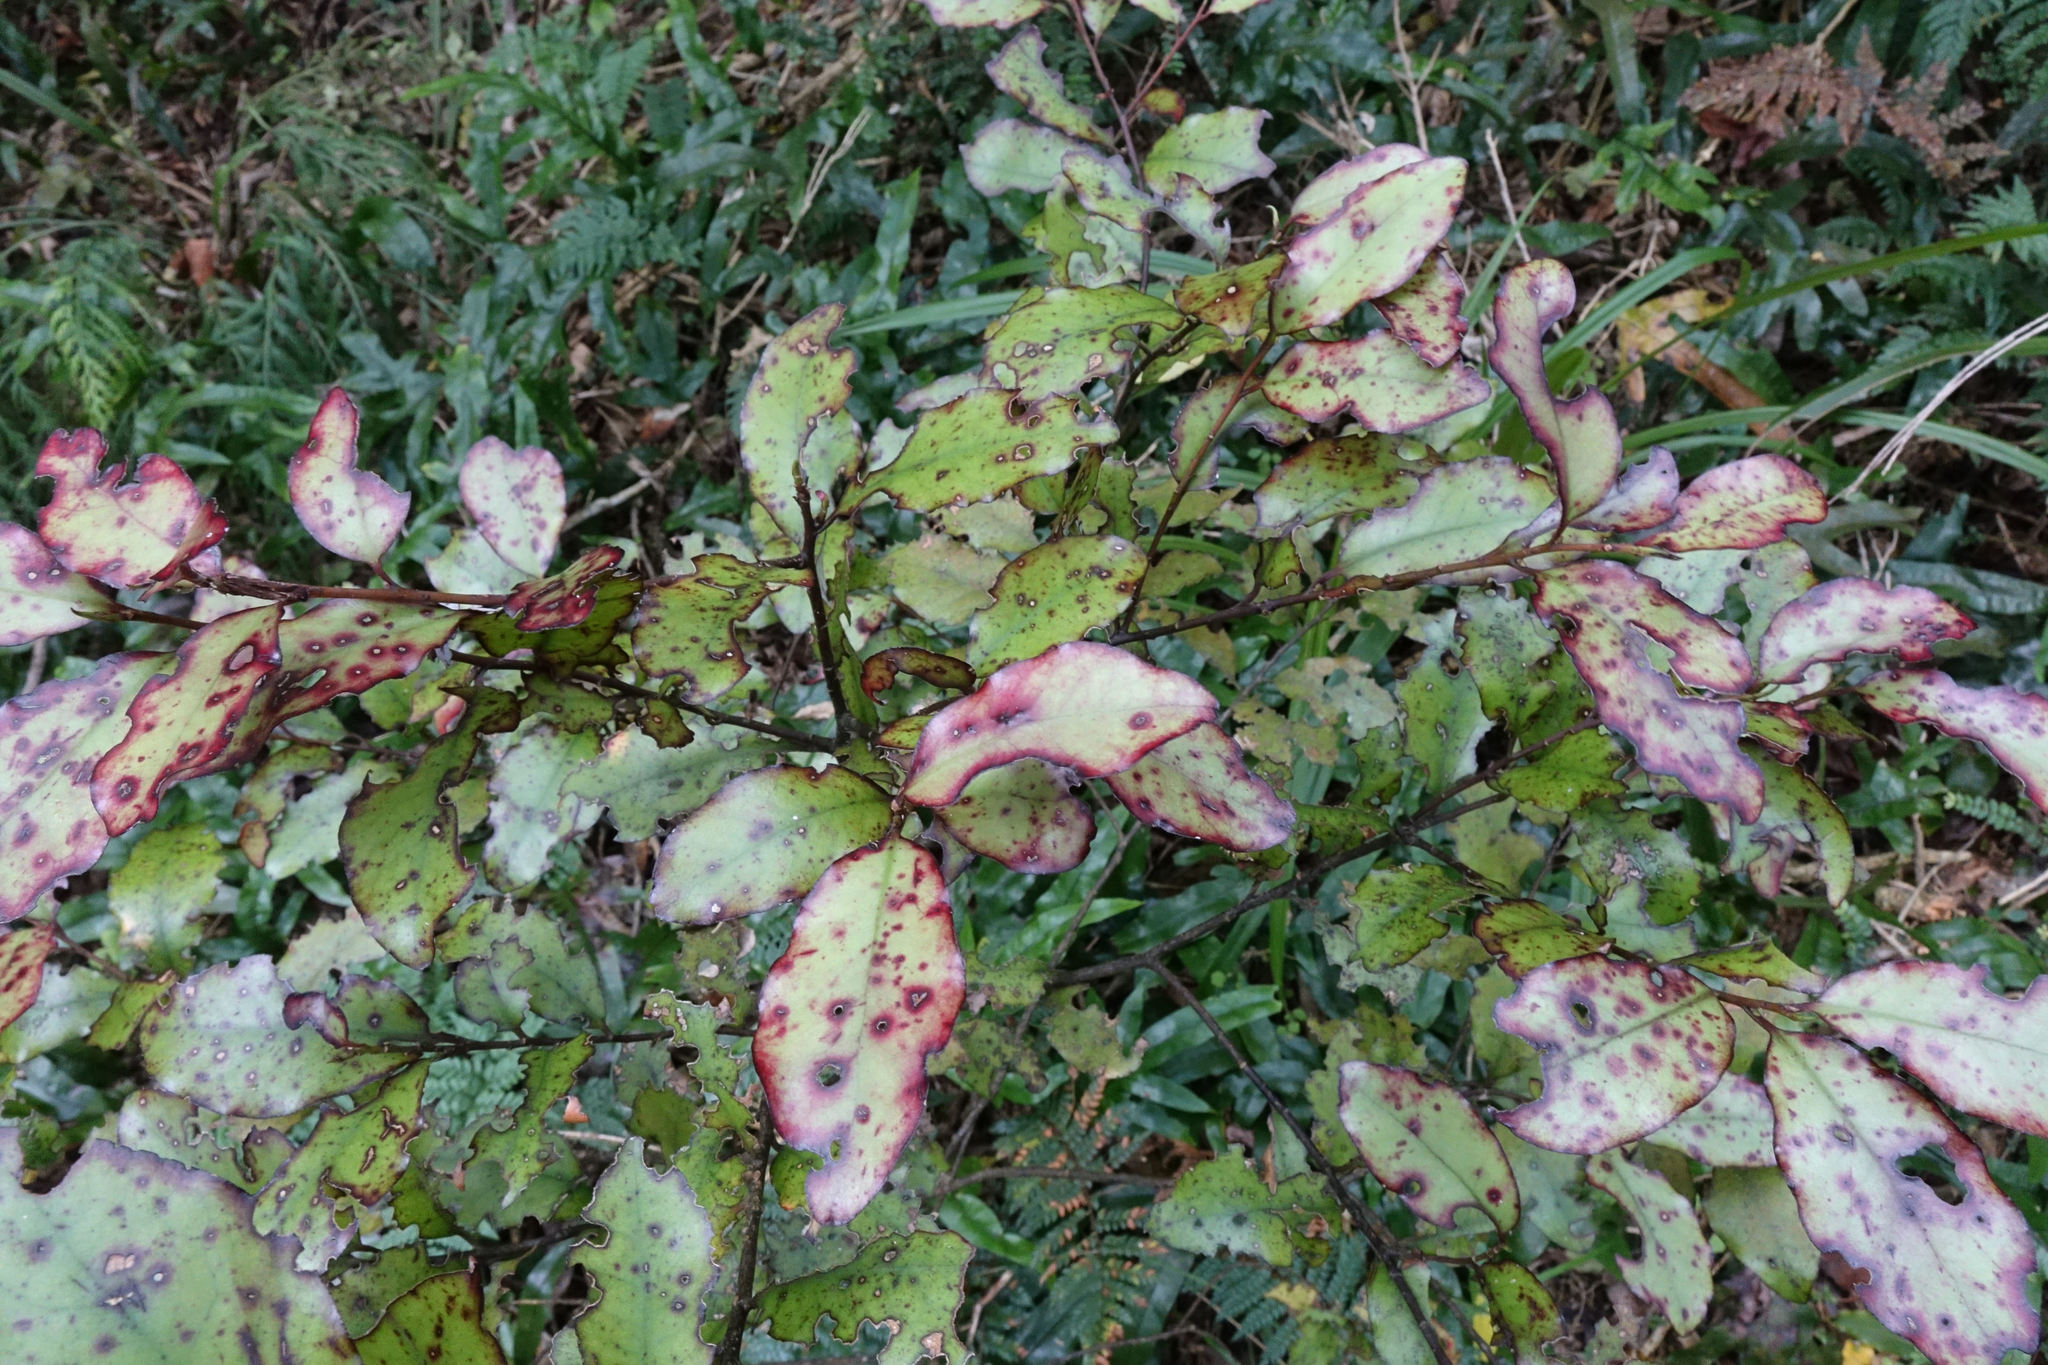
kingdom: Plantae
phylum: Tracheophyta
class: Magnoliopsida
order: Canellales
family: Winteraceae
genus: Pseudowintera
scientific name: Pseudowintera colorata
